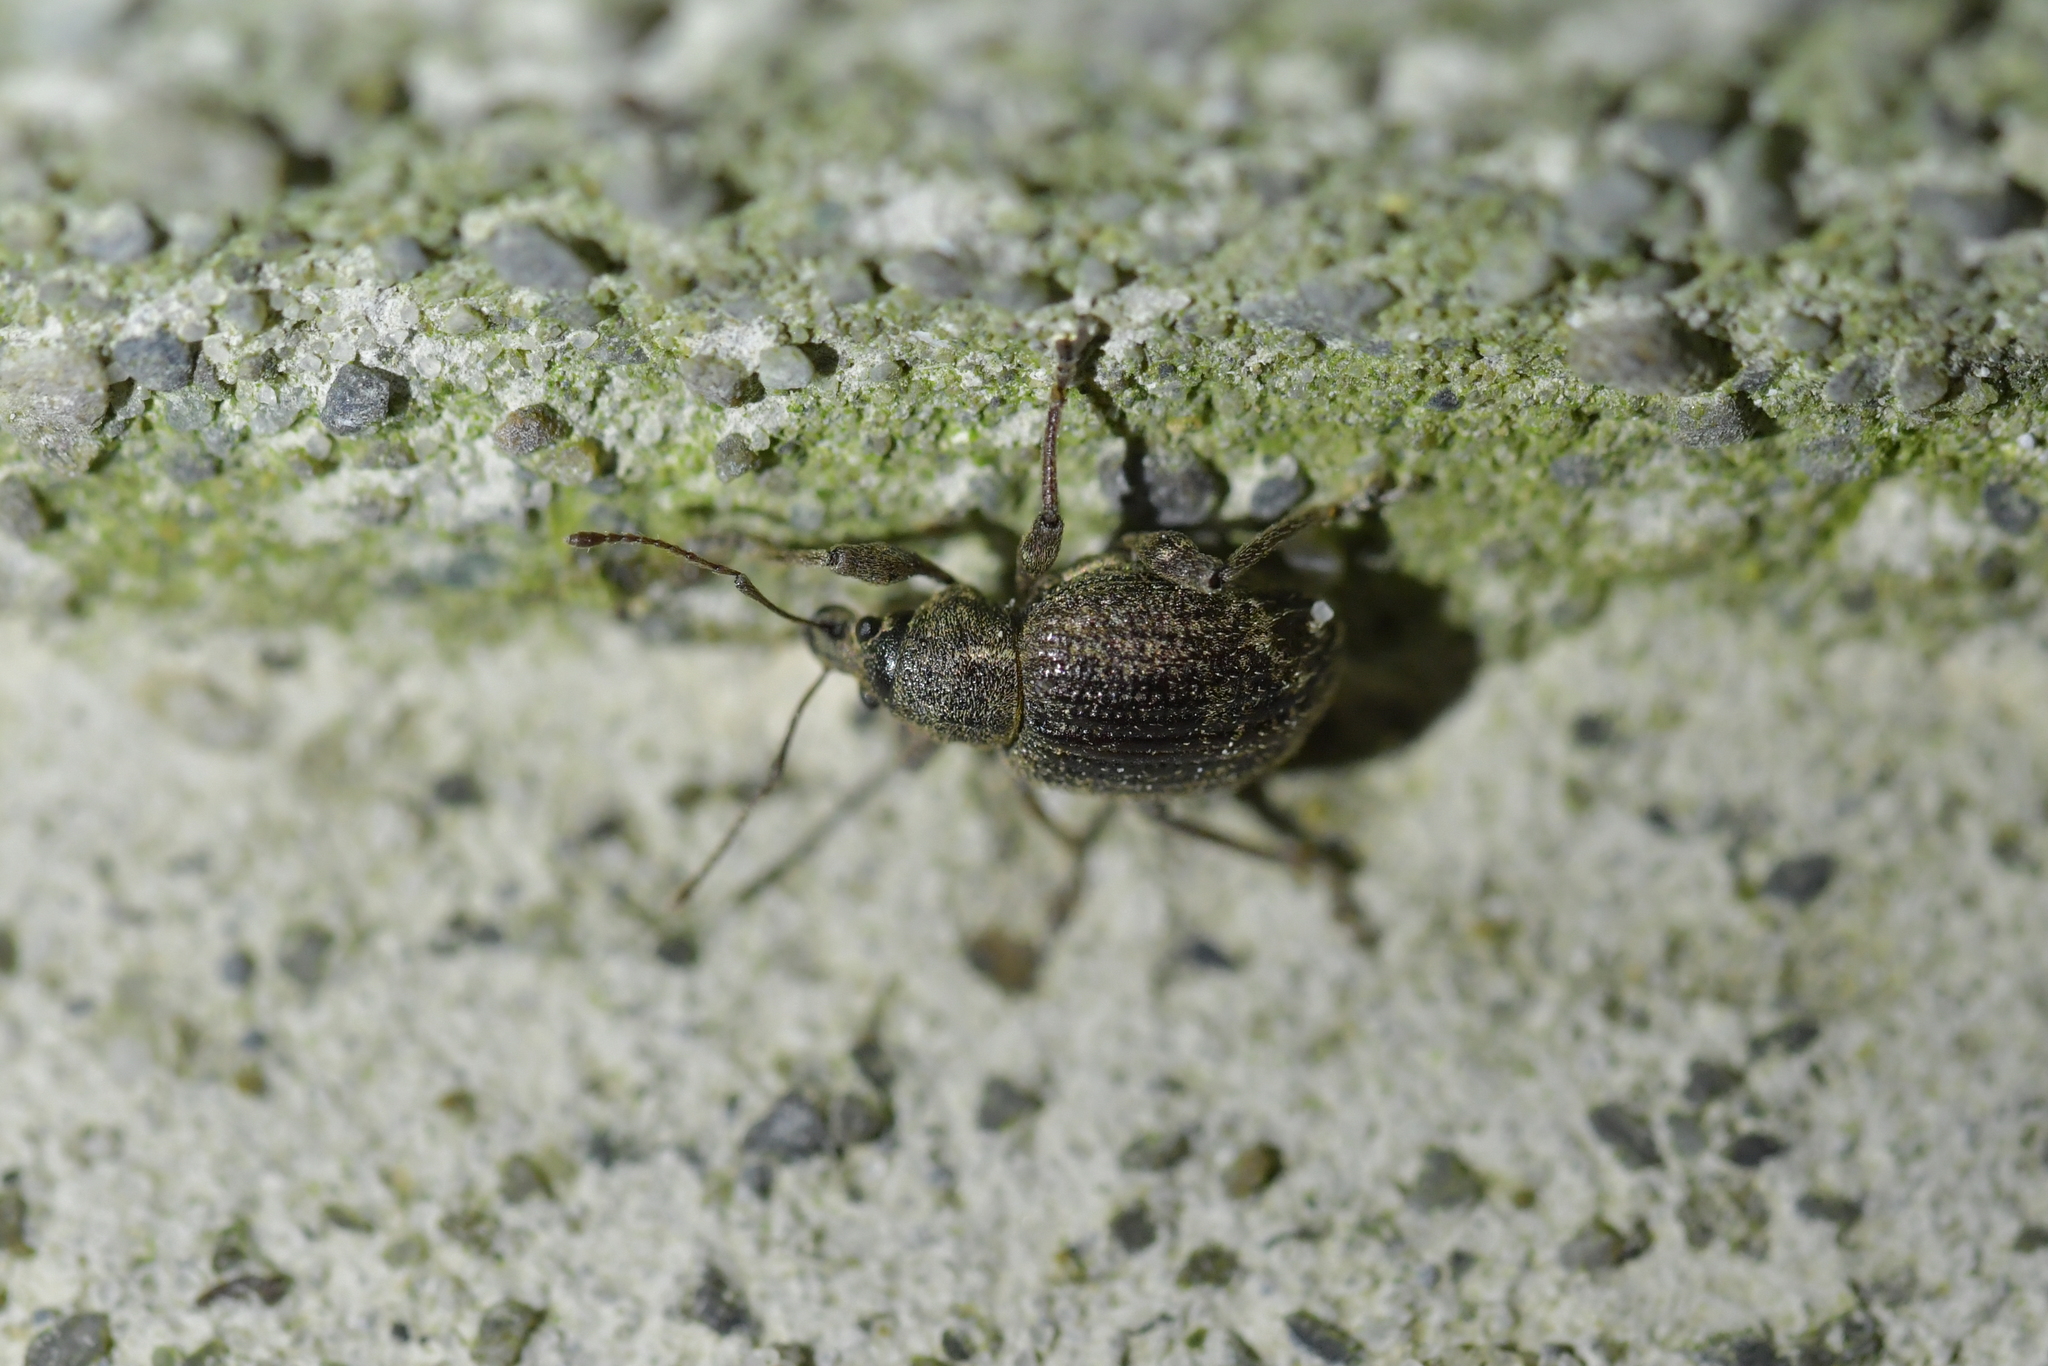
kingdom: Animalia
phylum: Arthropoda
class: Insecta
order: Coleoptera
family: Curculionidae
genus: Phlyctinus
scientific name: Phlyctinus callosus
